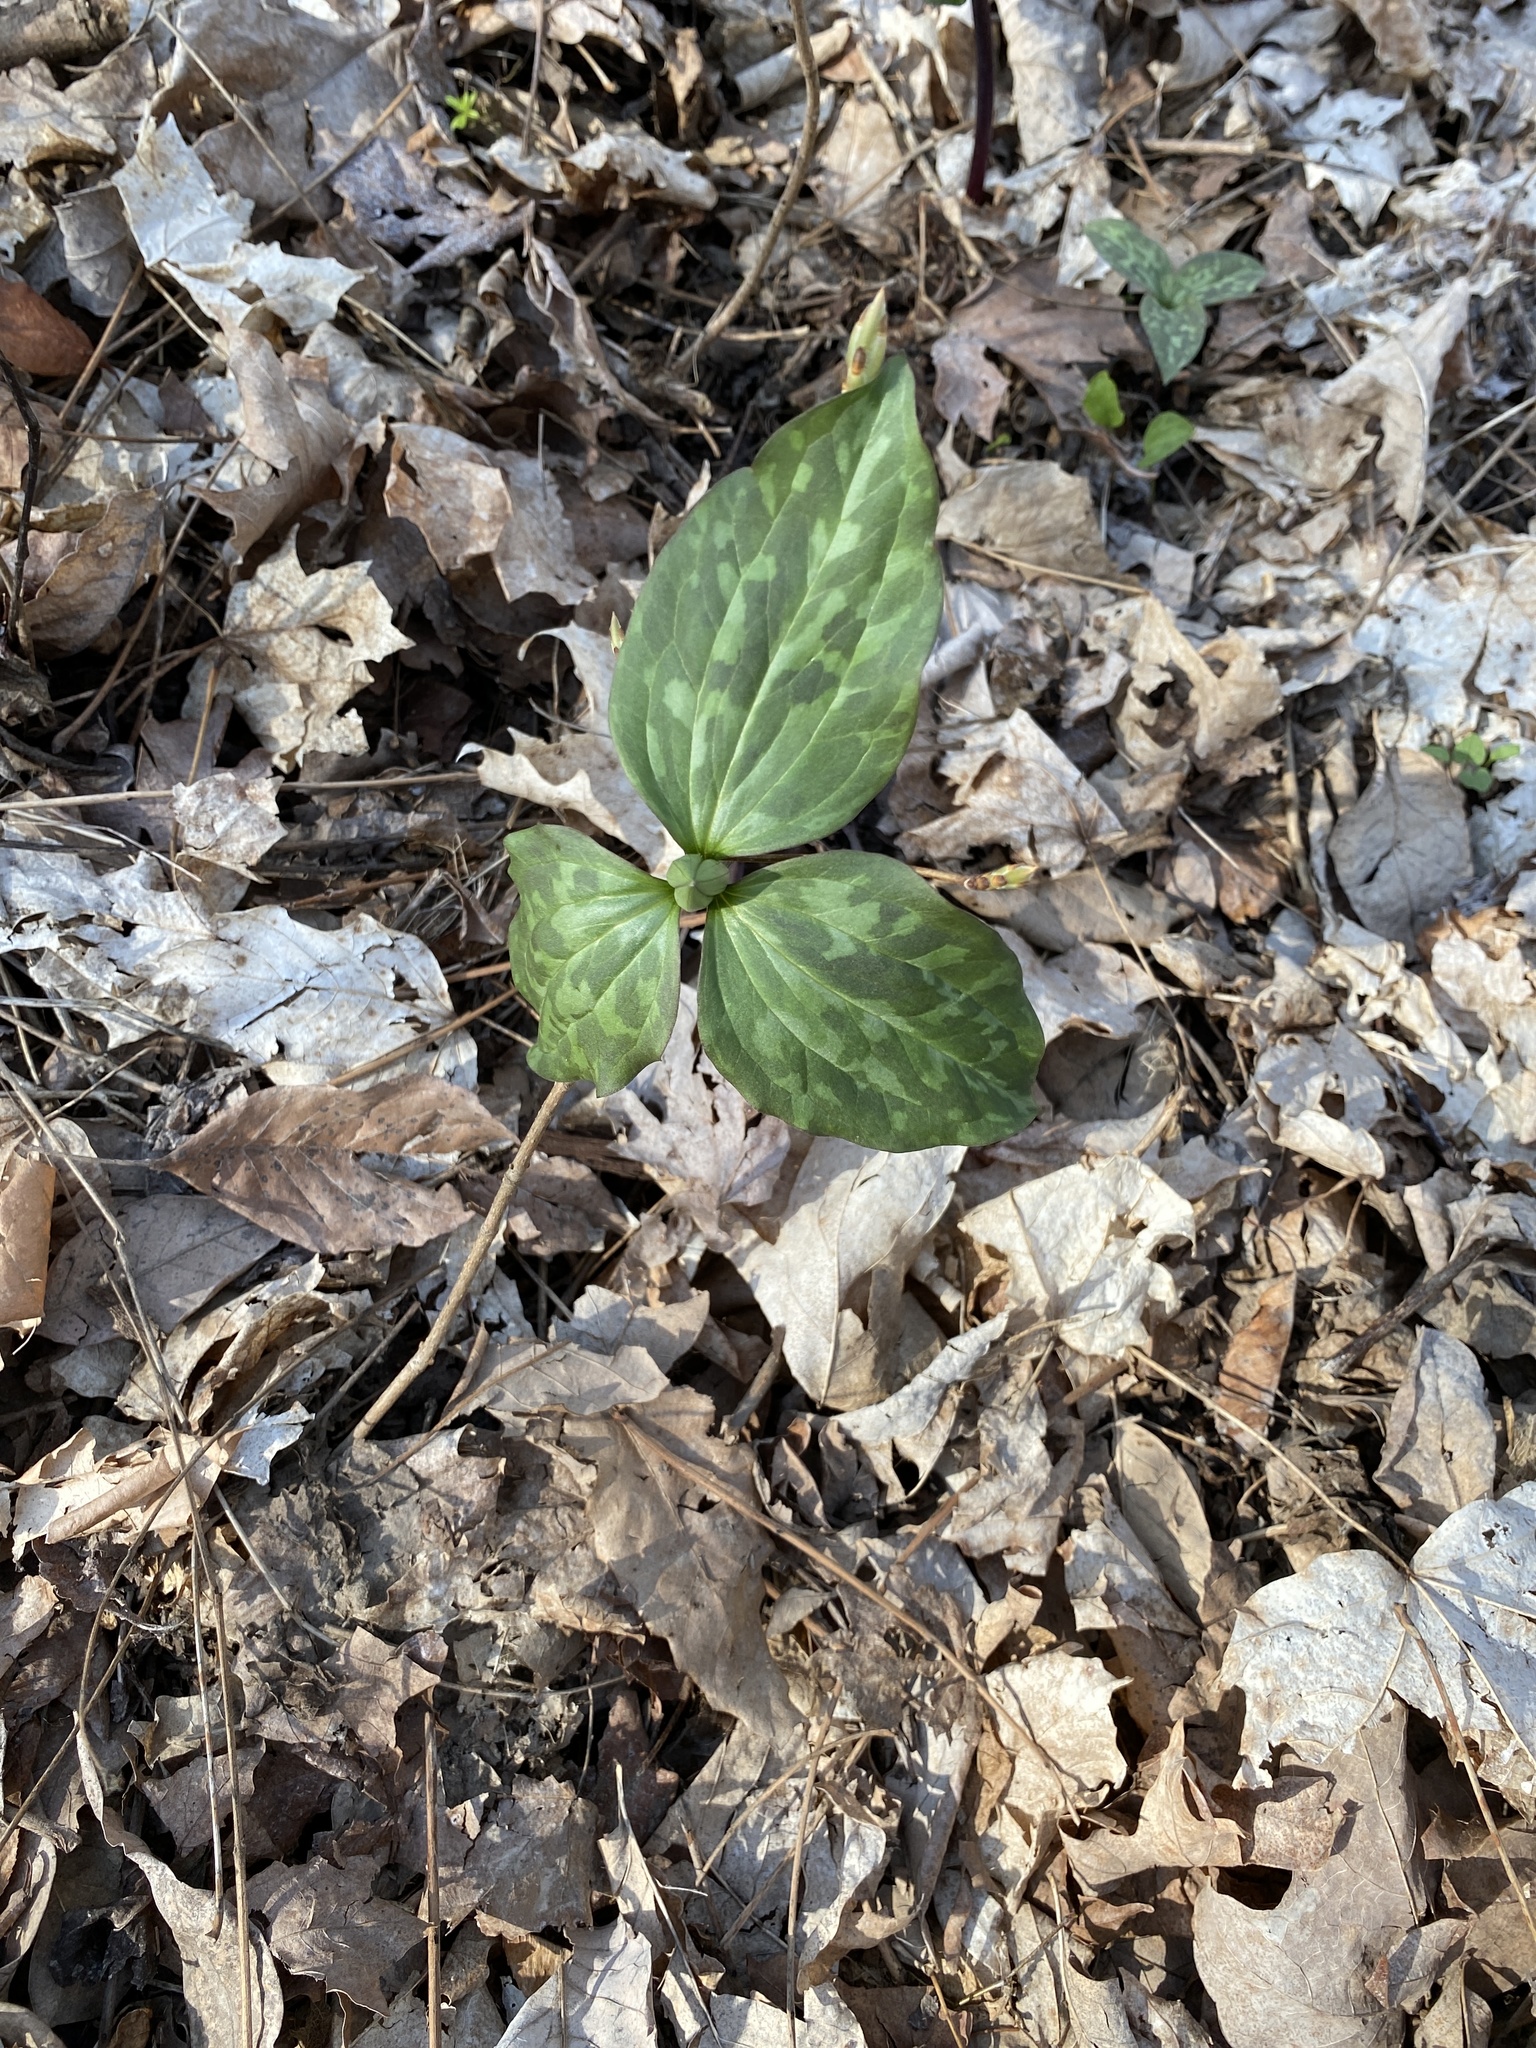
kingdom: Plantae
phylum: Tracheophyta
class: Liliopsida
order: Liliales
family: Melanthiaceae
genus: Trillium
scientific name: Trillium recurvatum
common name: Bloody butcher
